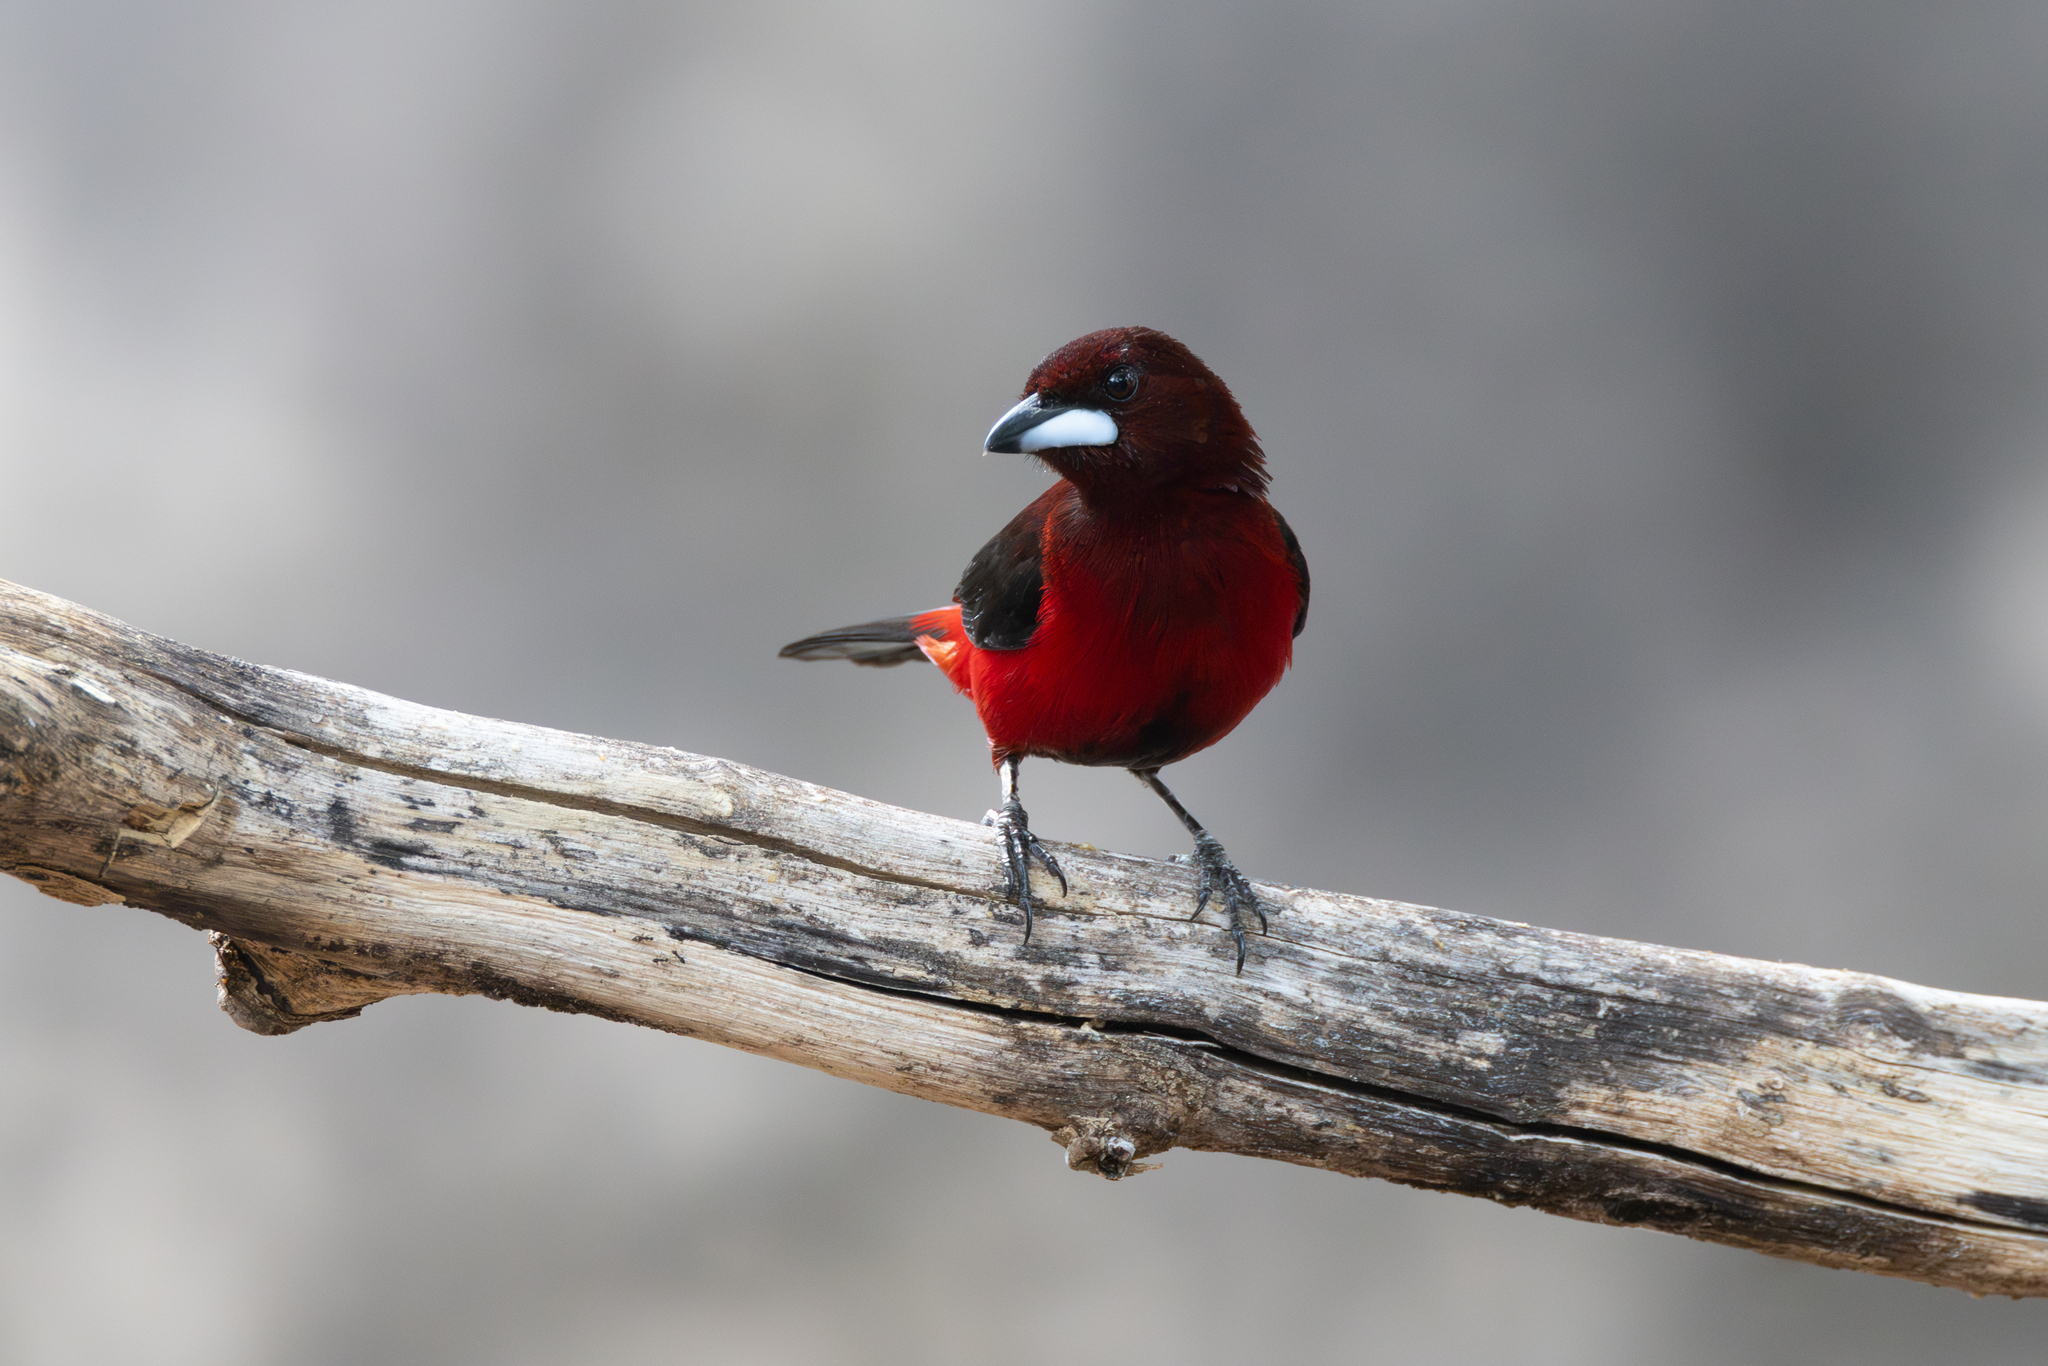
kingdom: Animalia
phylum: Chordata
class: Aves
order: Passeriformes
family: Thraupidae
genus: Ramphocelus
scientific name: Ramphocelus dimidiatus
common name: Crimson-backed tanager
